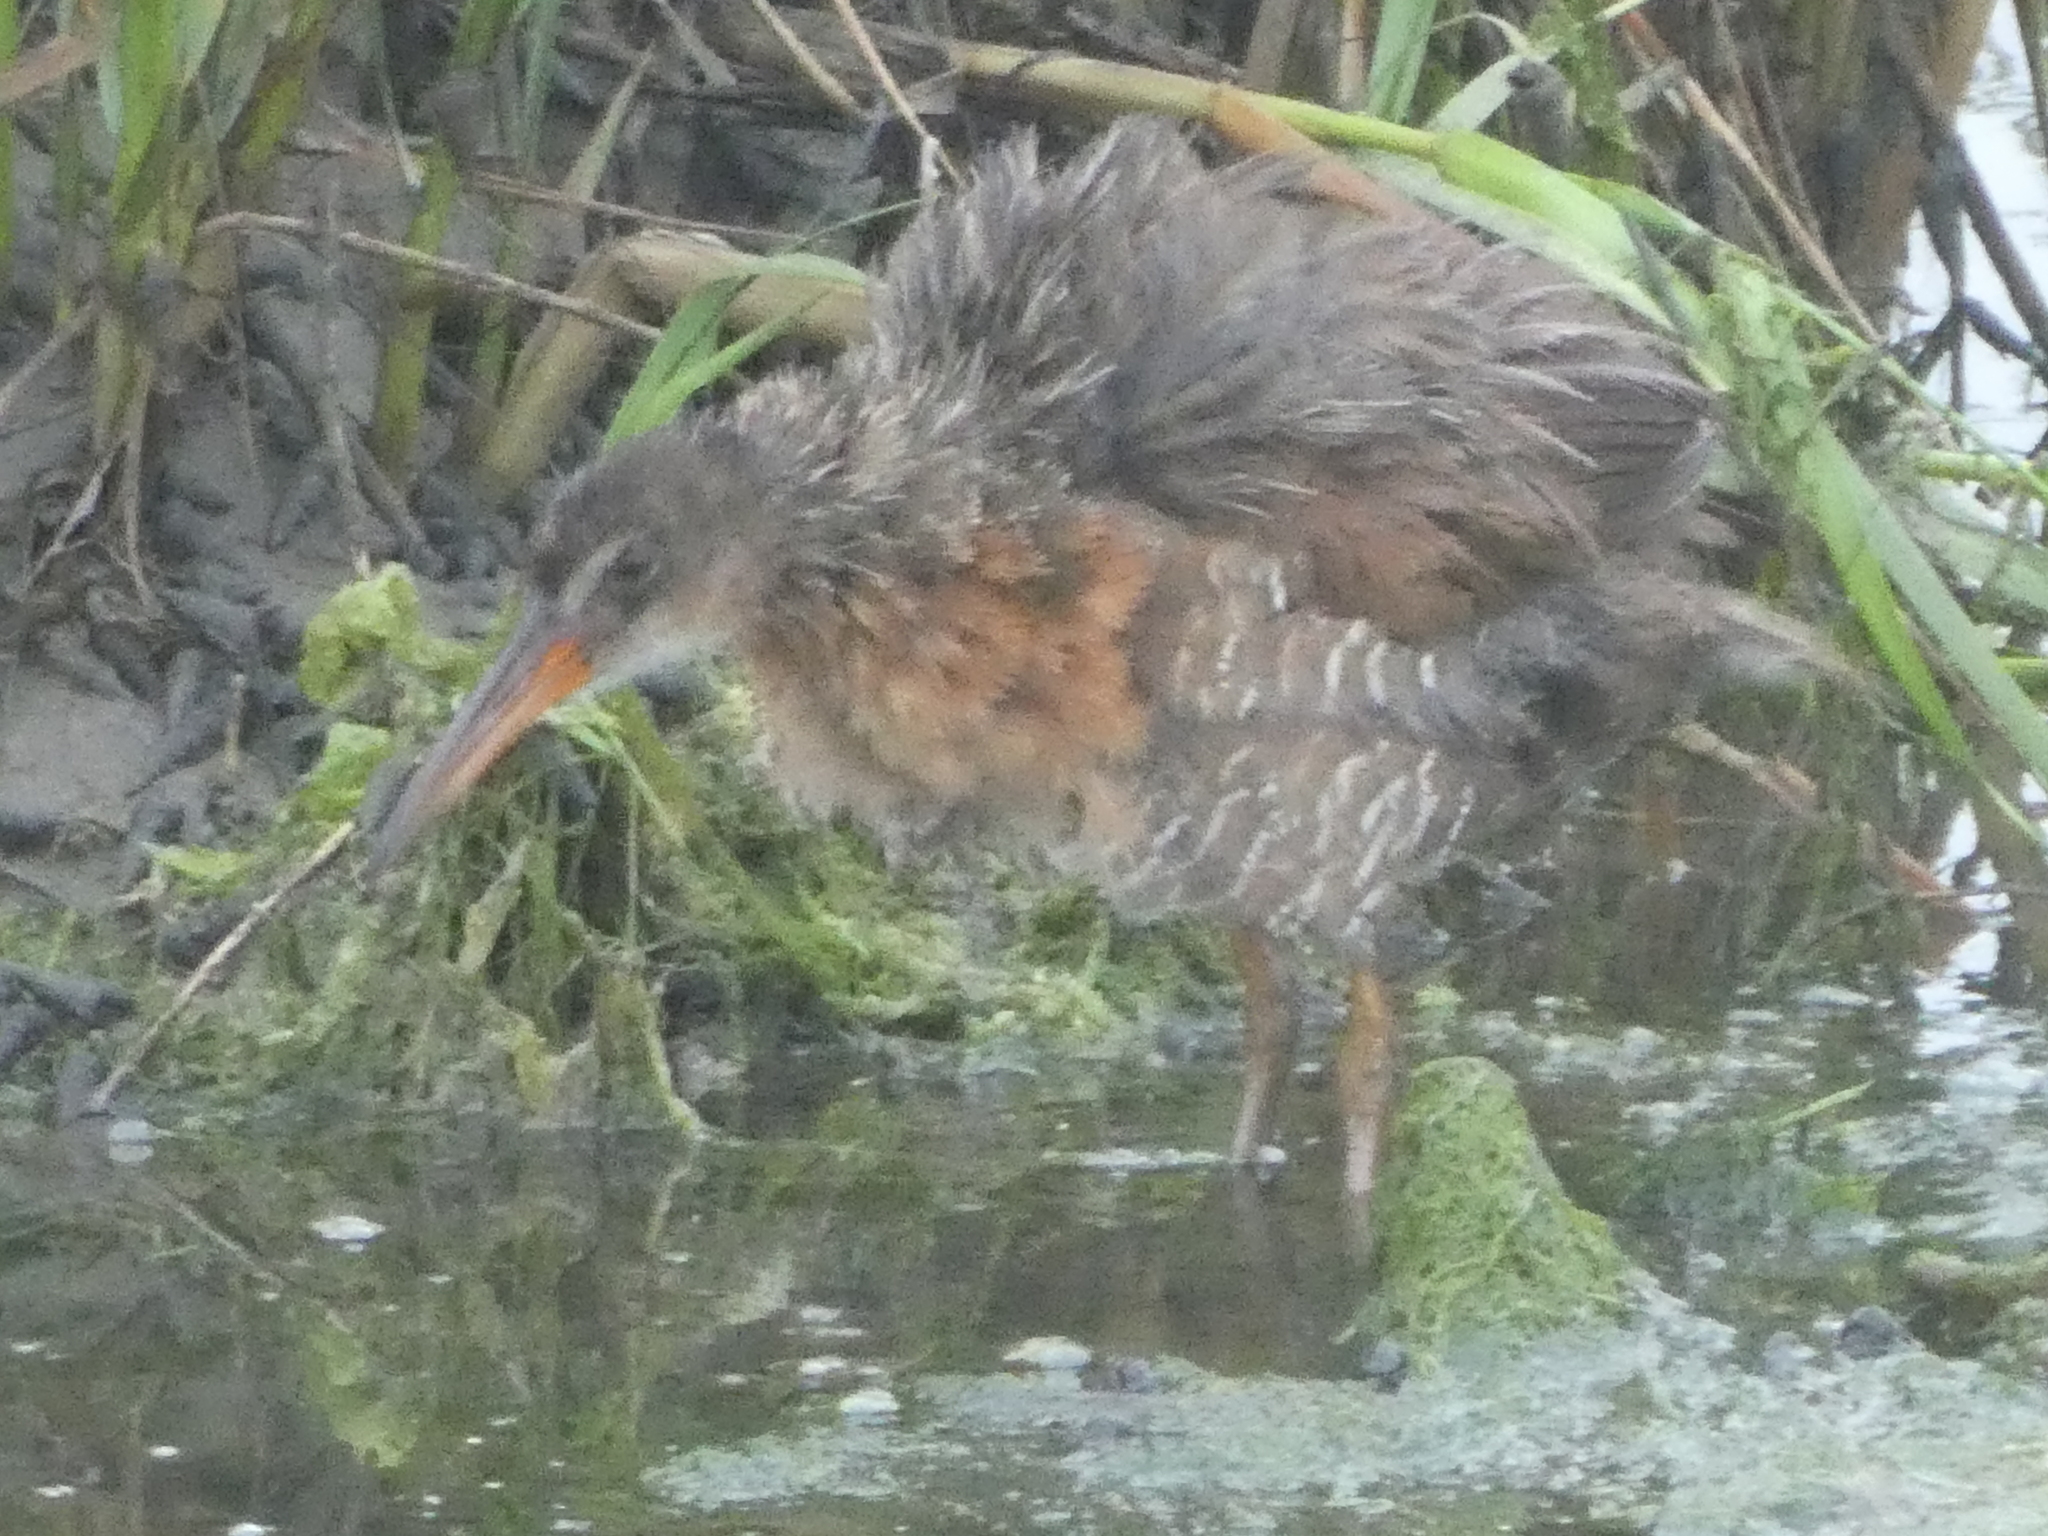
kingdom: Animalia
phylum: Chordata
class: Aves
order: Gruiformes
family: Rallidae
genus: Rallus
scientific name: Rallus obsoletus
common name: Ridgway's rail
